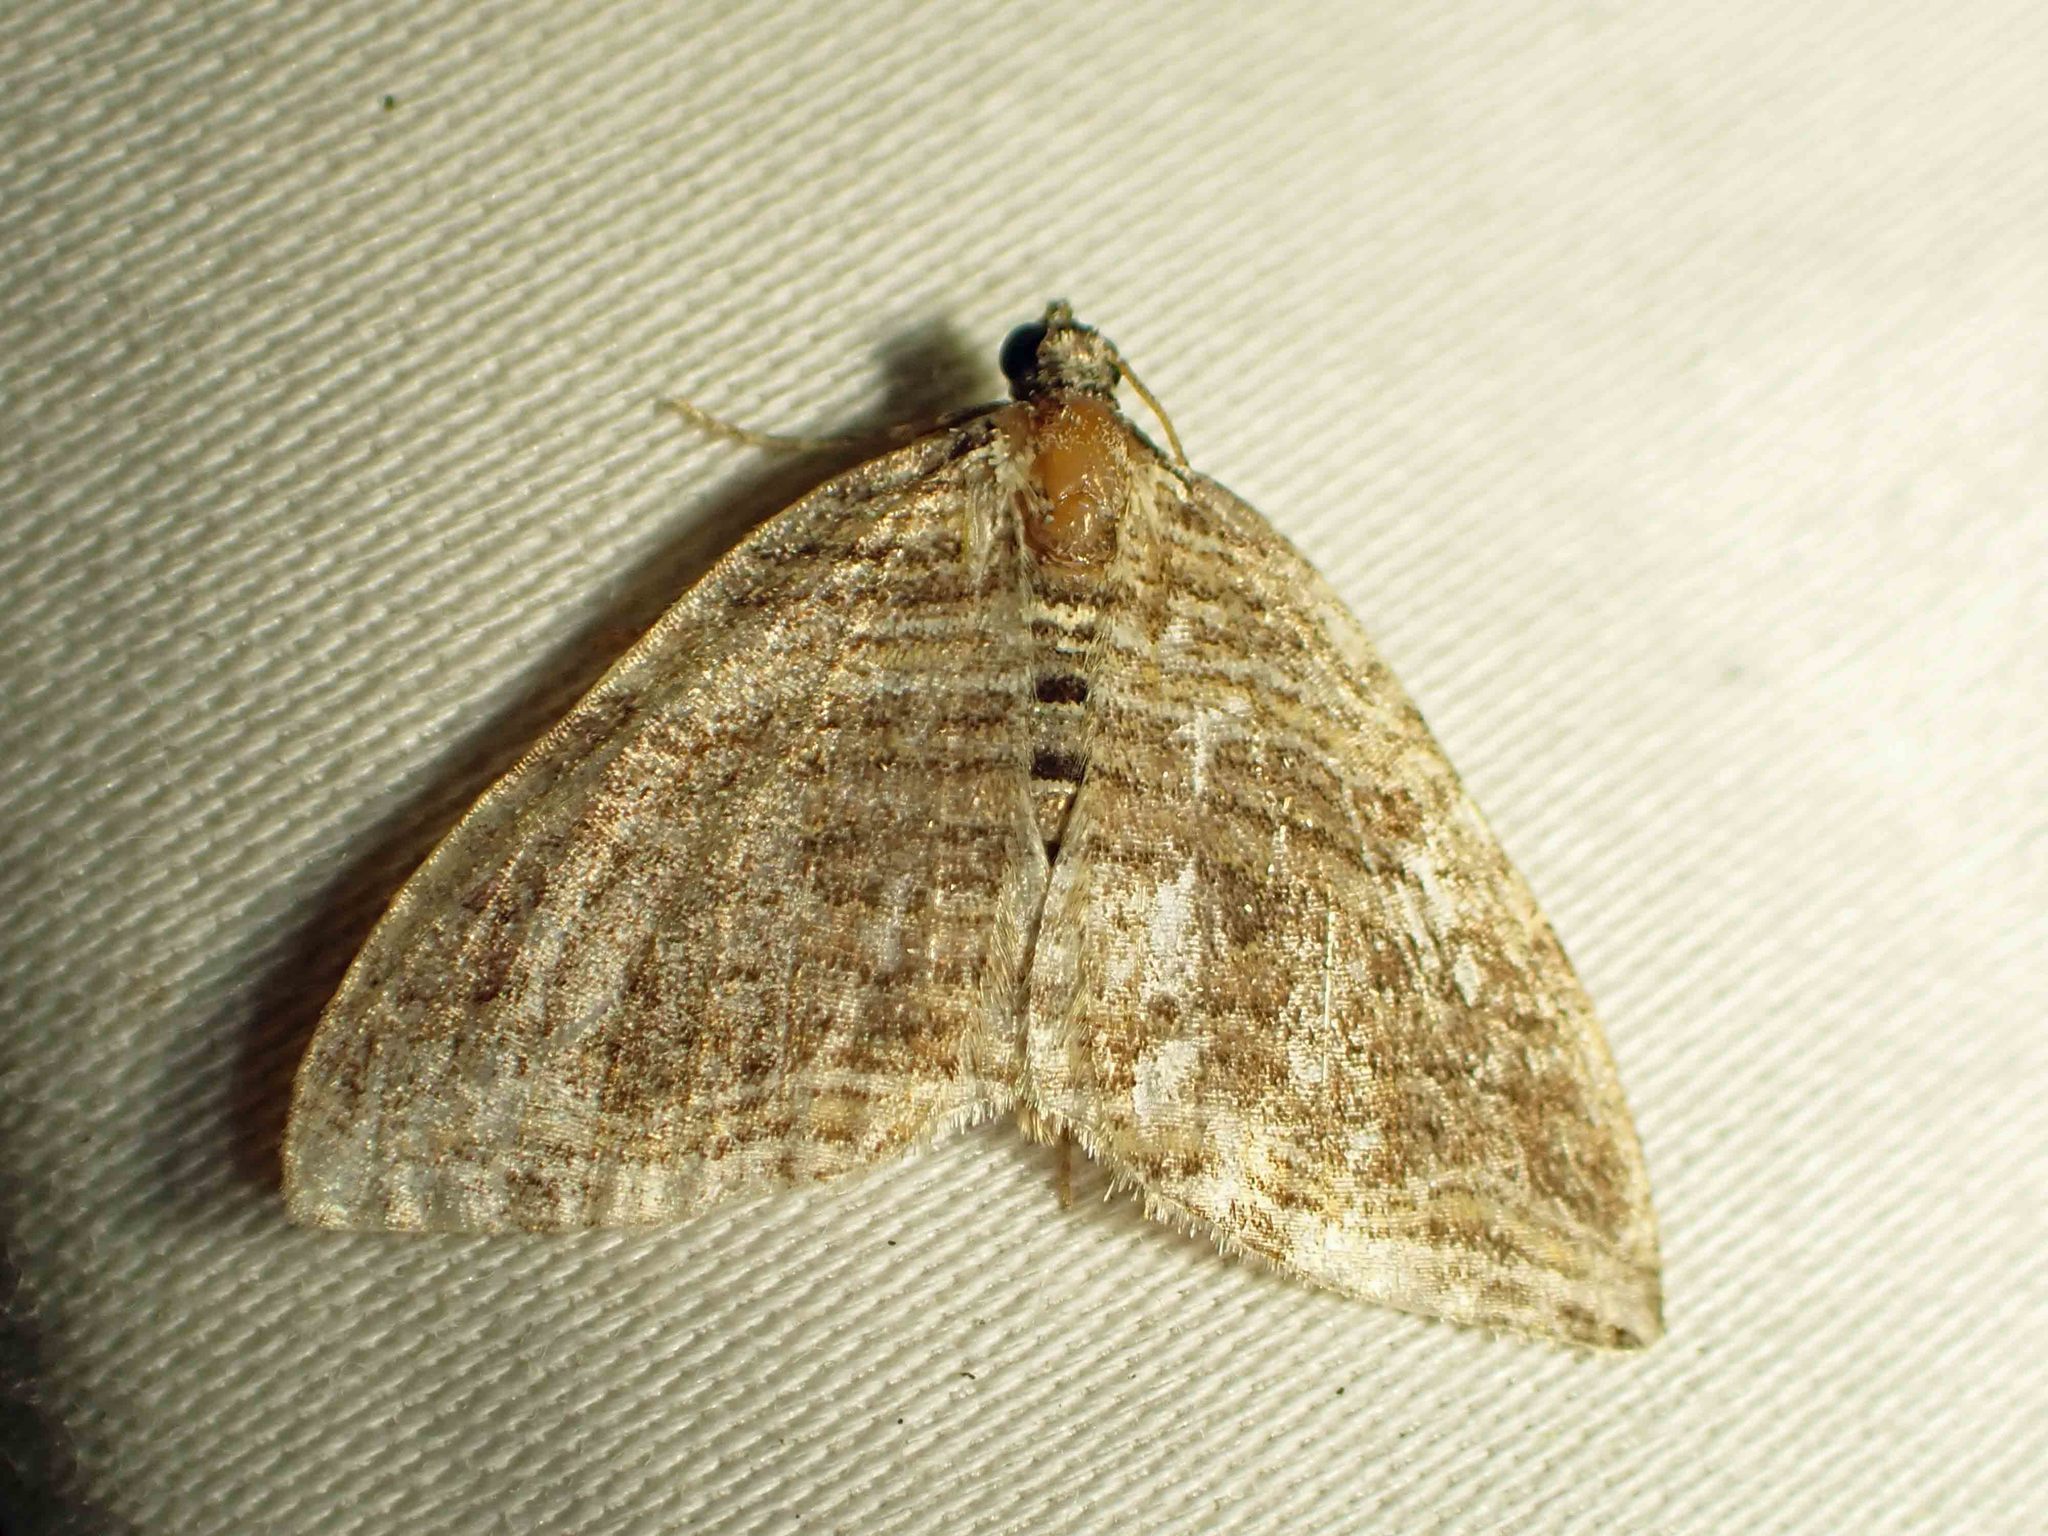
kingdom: Animalia
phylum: Arthropoda
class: Insecta
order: Lepidoptera
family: Geometridae
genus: Anticlea
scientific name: Anticlea multiferata
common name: Many-lined carpet
